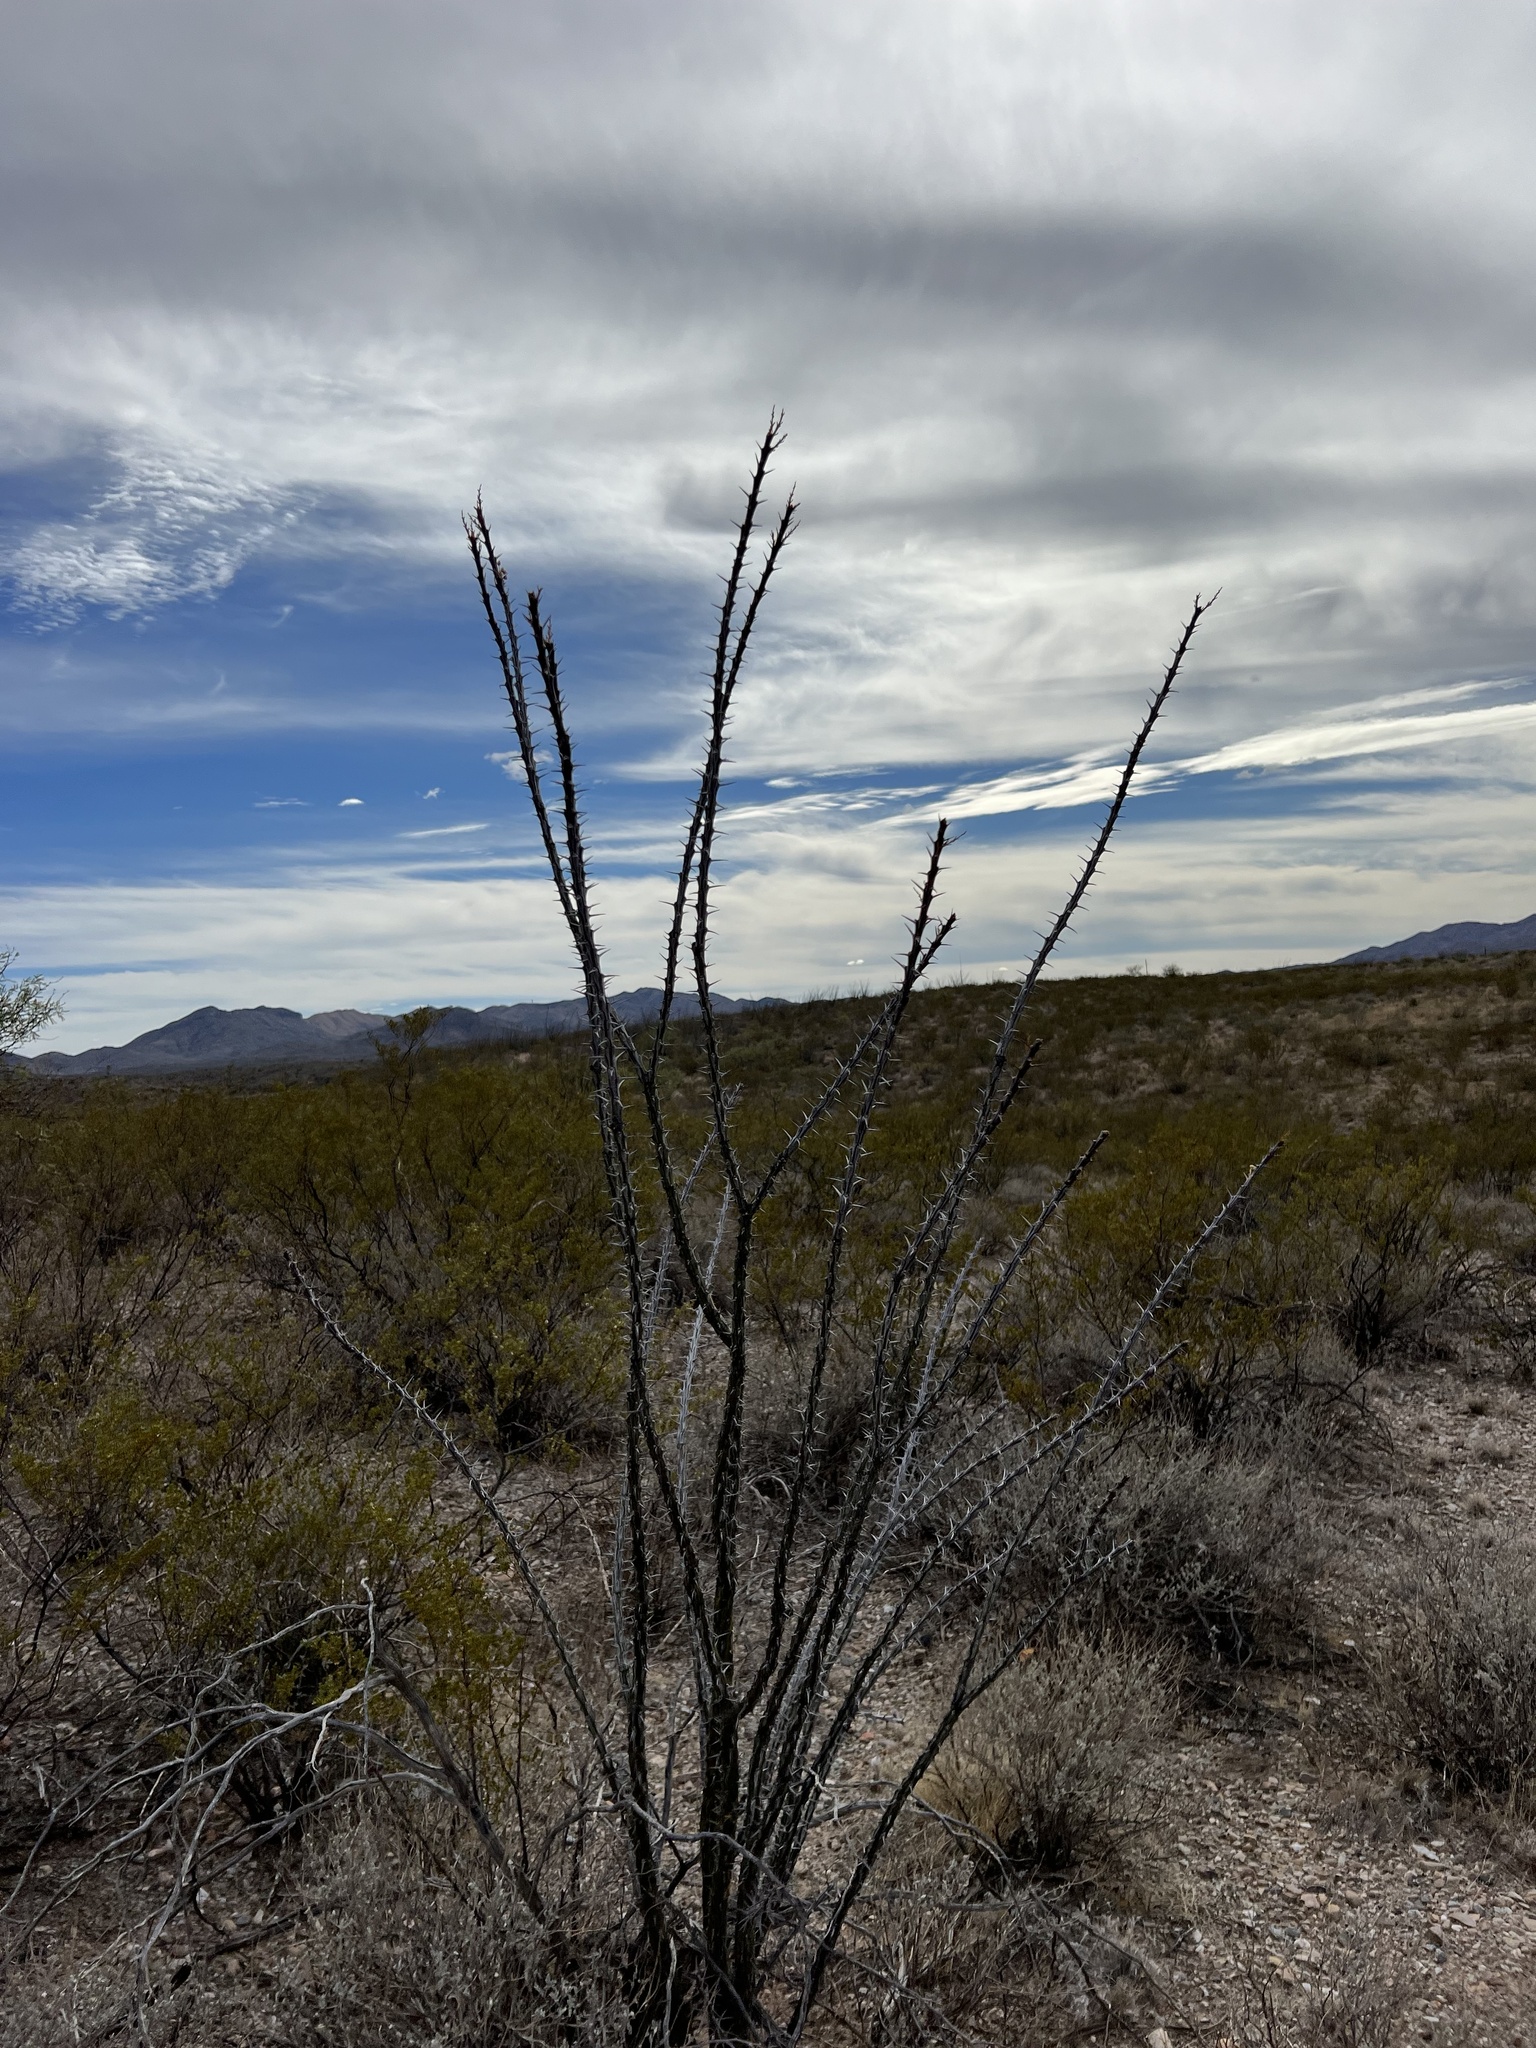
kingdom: Plantae
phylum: Tracheophyta
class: Magnoliopsida
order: Ericales
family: Fouquieriaceae
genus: Fouquieria
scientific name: Fouquieria splendens
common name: Vine-cactus
